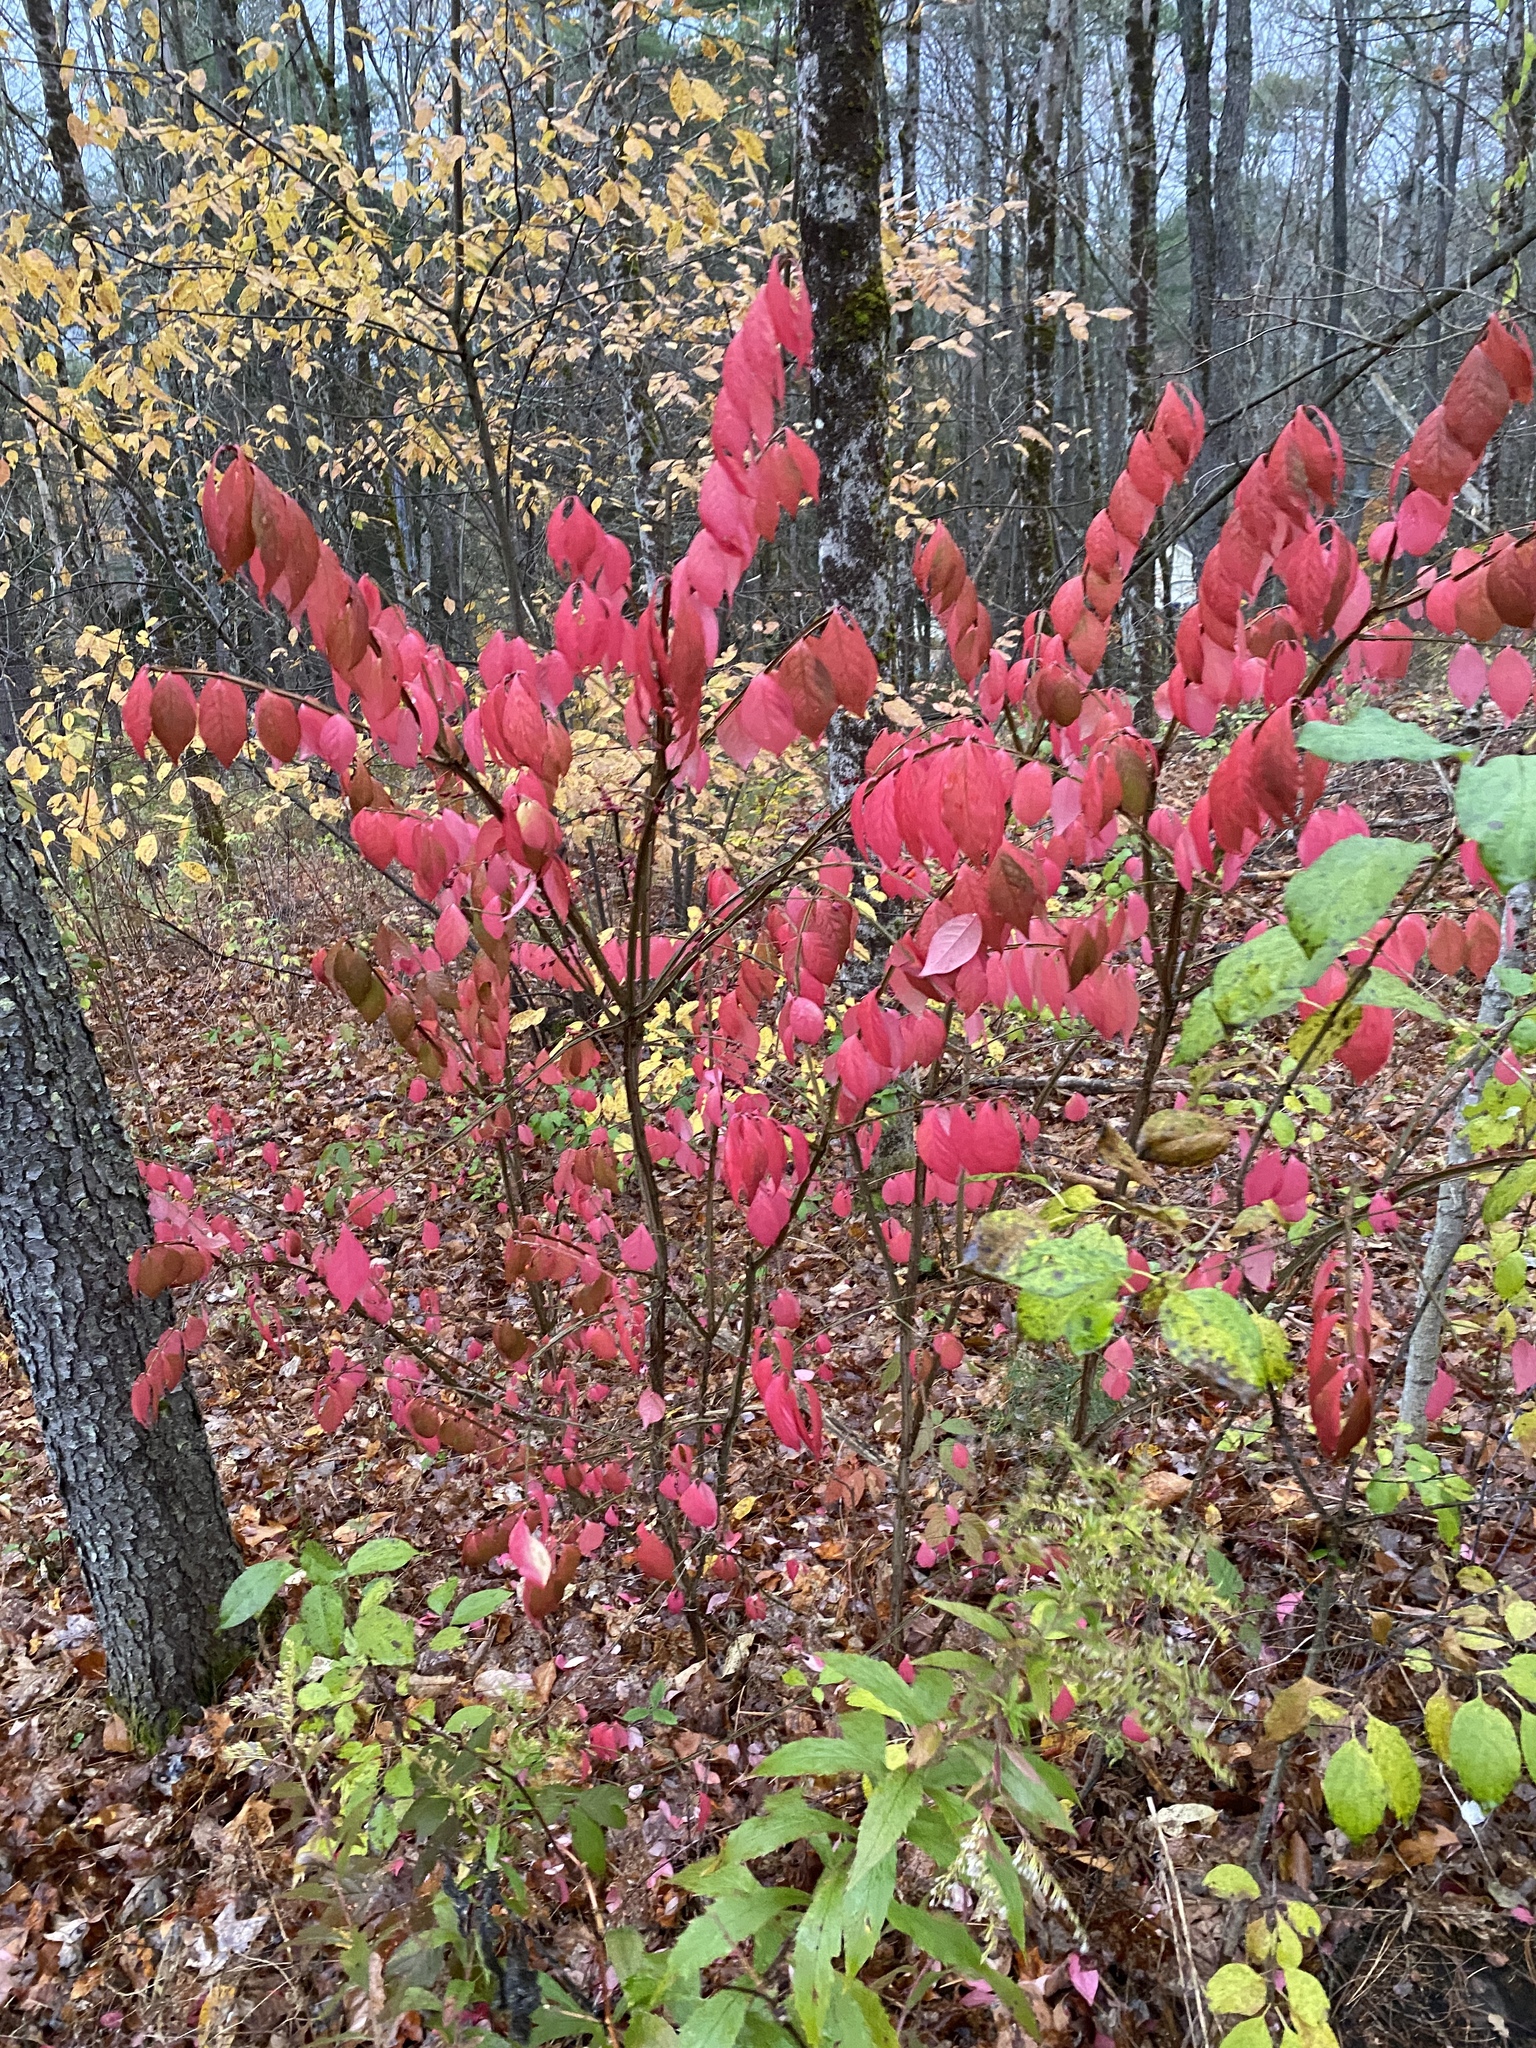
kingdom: Plantae
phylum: Tracheophyta
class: Magnoliopsida
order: Celastrales
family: Celastraceae
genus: Euonymus
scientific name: Euonymus alatus
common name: Winged euonymus
